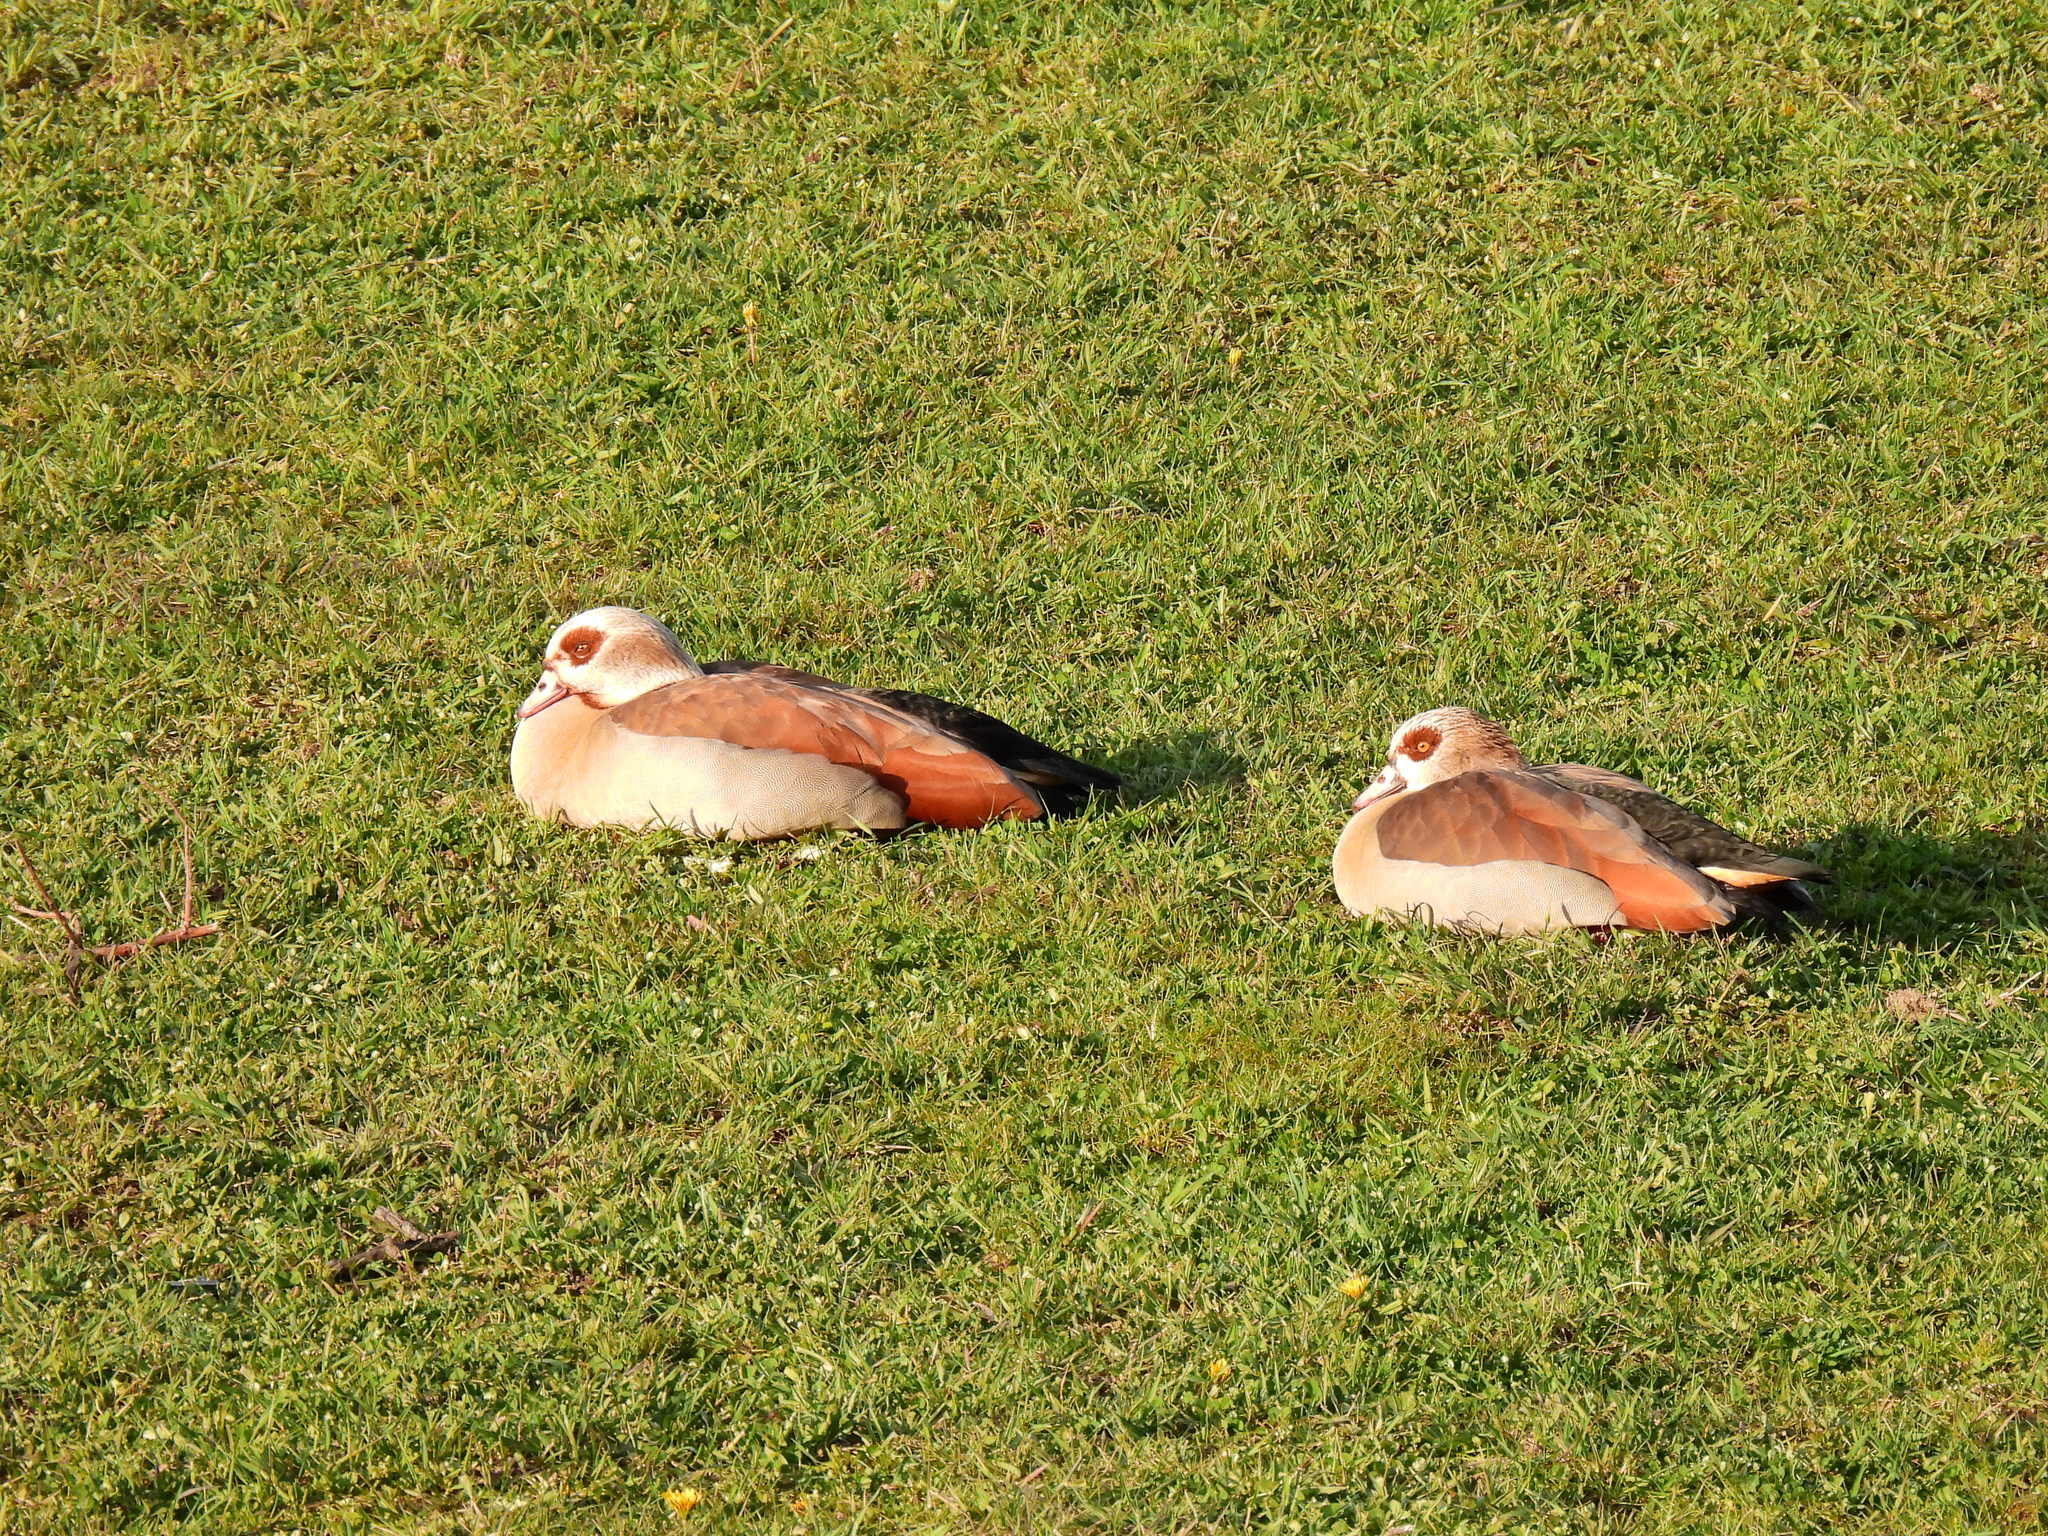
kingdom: Animalia
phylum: Chordata
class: Aves
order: Anseriformes
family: Anatidae
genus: Alopochen
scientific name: Alopochen aegyptiaca
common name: Egyptian goose
